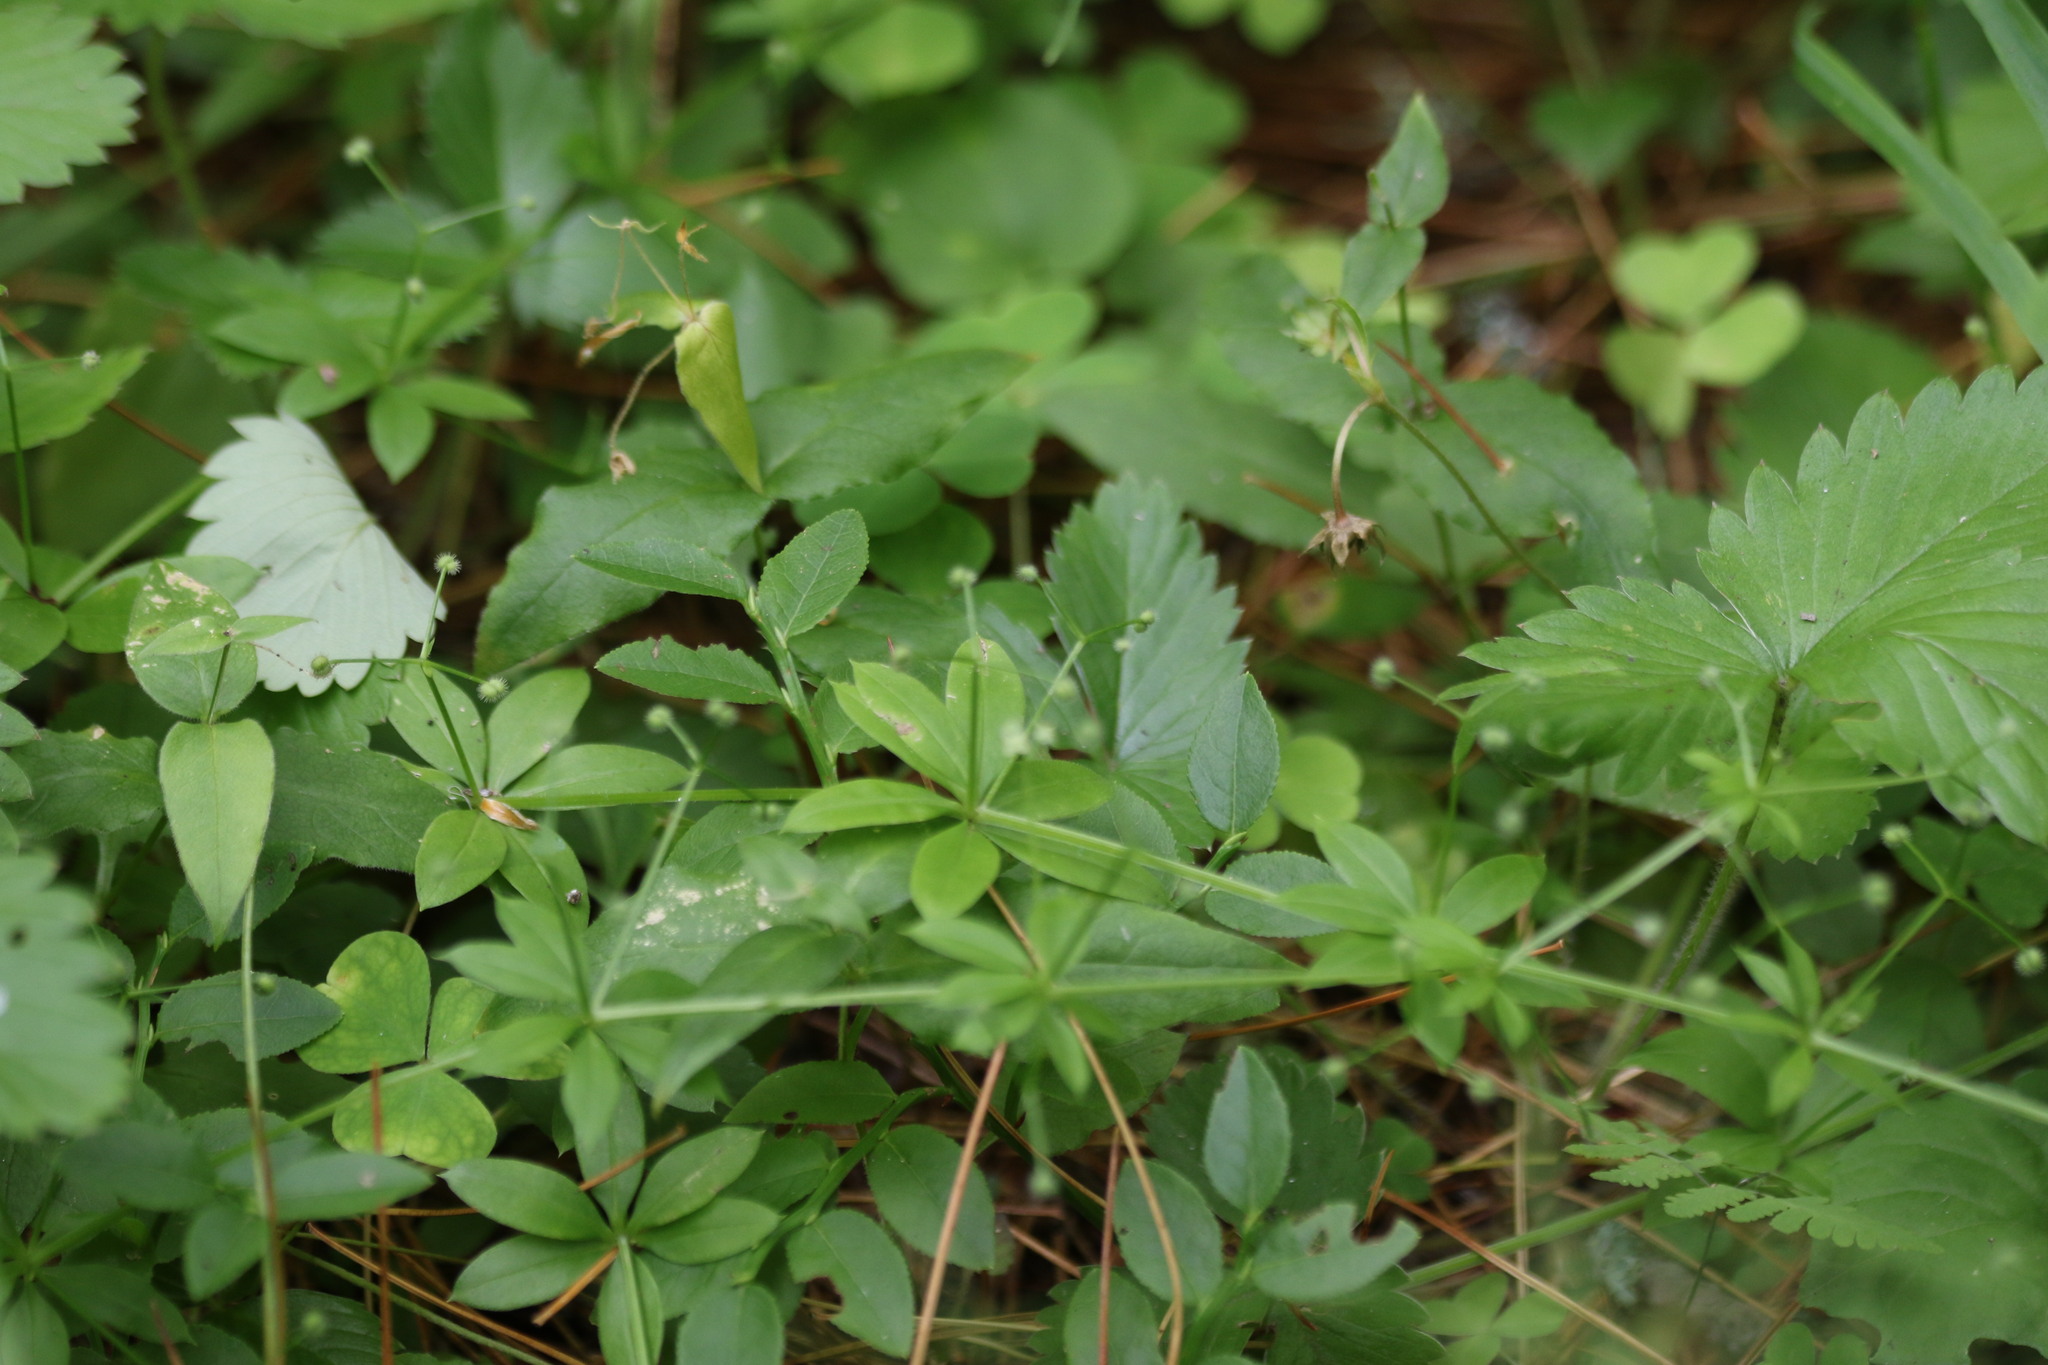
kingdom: Plantae
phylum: Tracheophyta
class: Magnoliopsida
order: Gentianales
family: Rubiaceae
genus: Galium
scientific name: Galium triflorum
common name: Fragrant bedstraw
